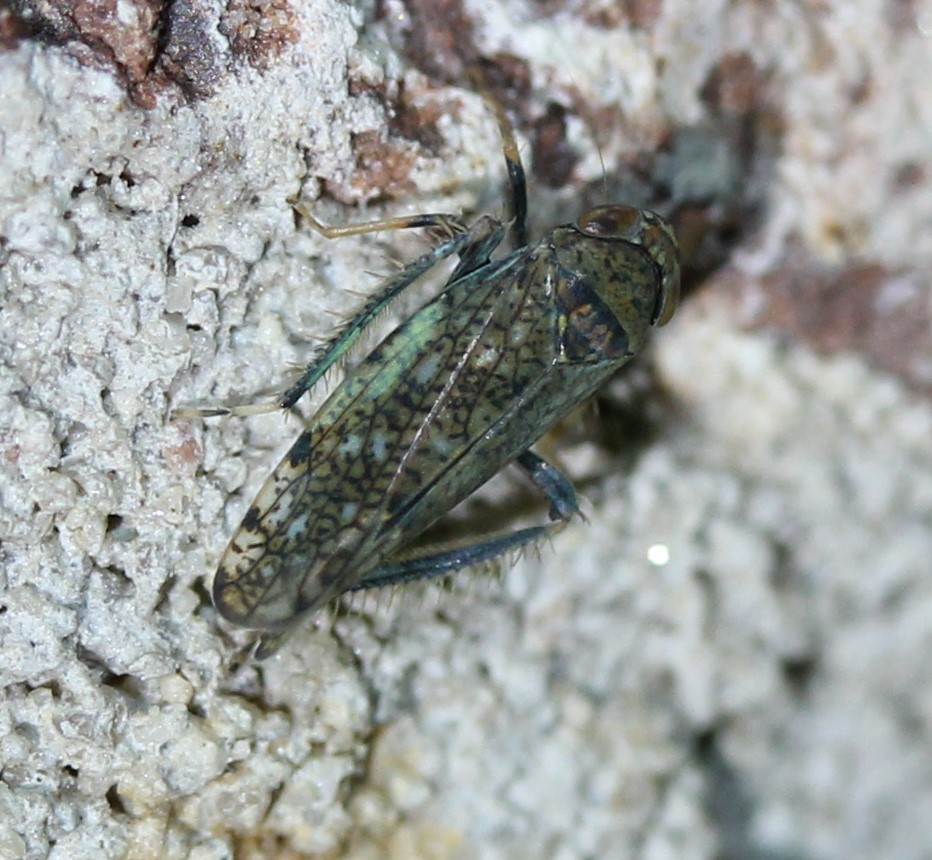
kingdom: Animalia
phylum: Arthropoda
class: Insecta
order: Hemiptera
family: Cicadellidae
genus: Orientus
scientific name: Orientus ishidae
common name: Japanese leafhopper
